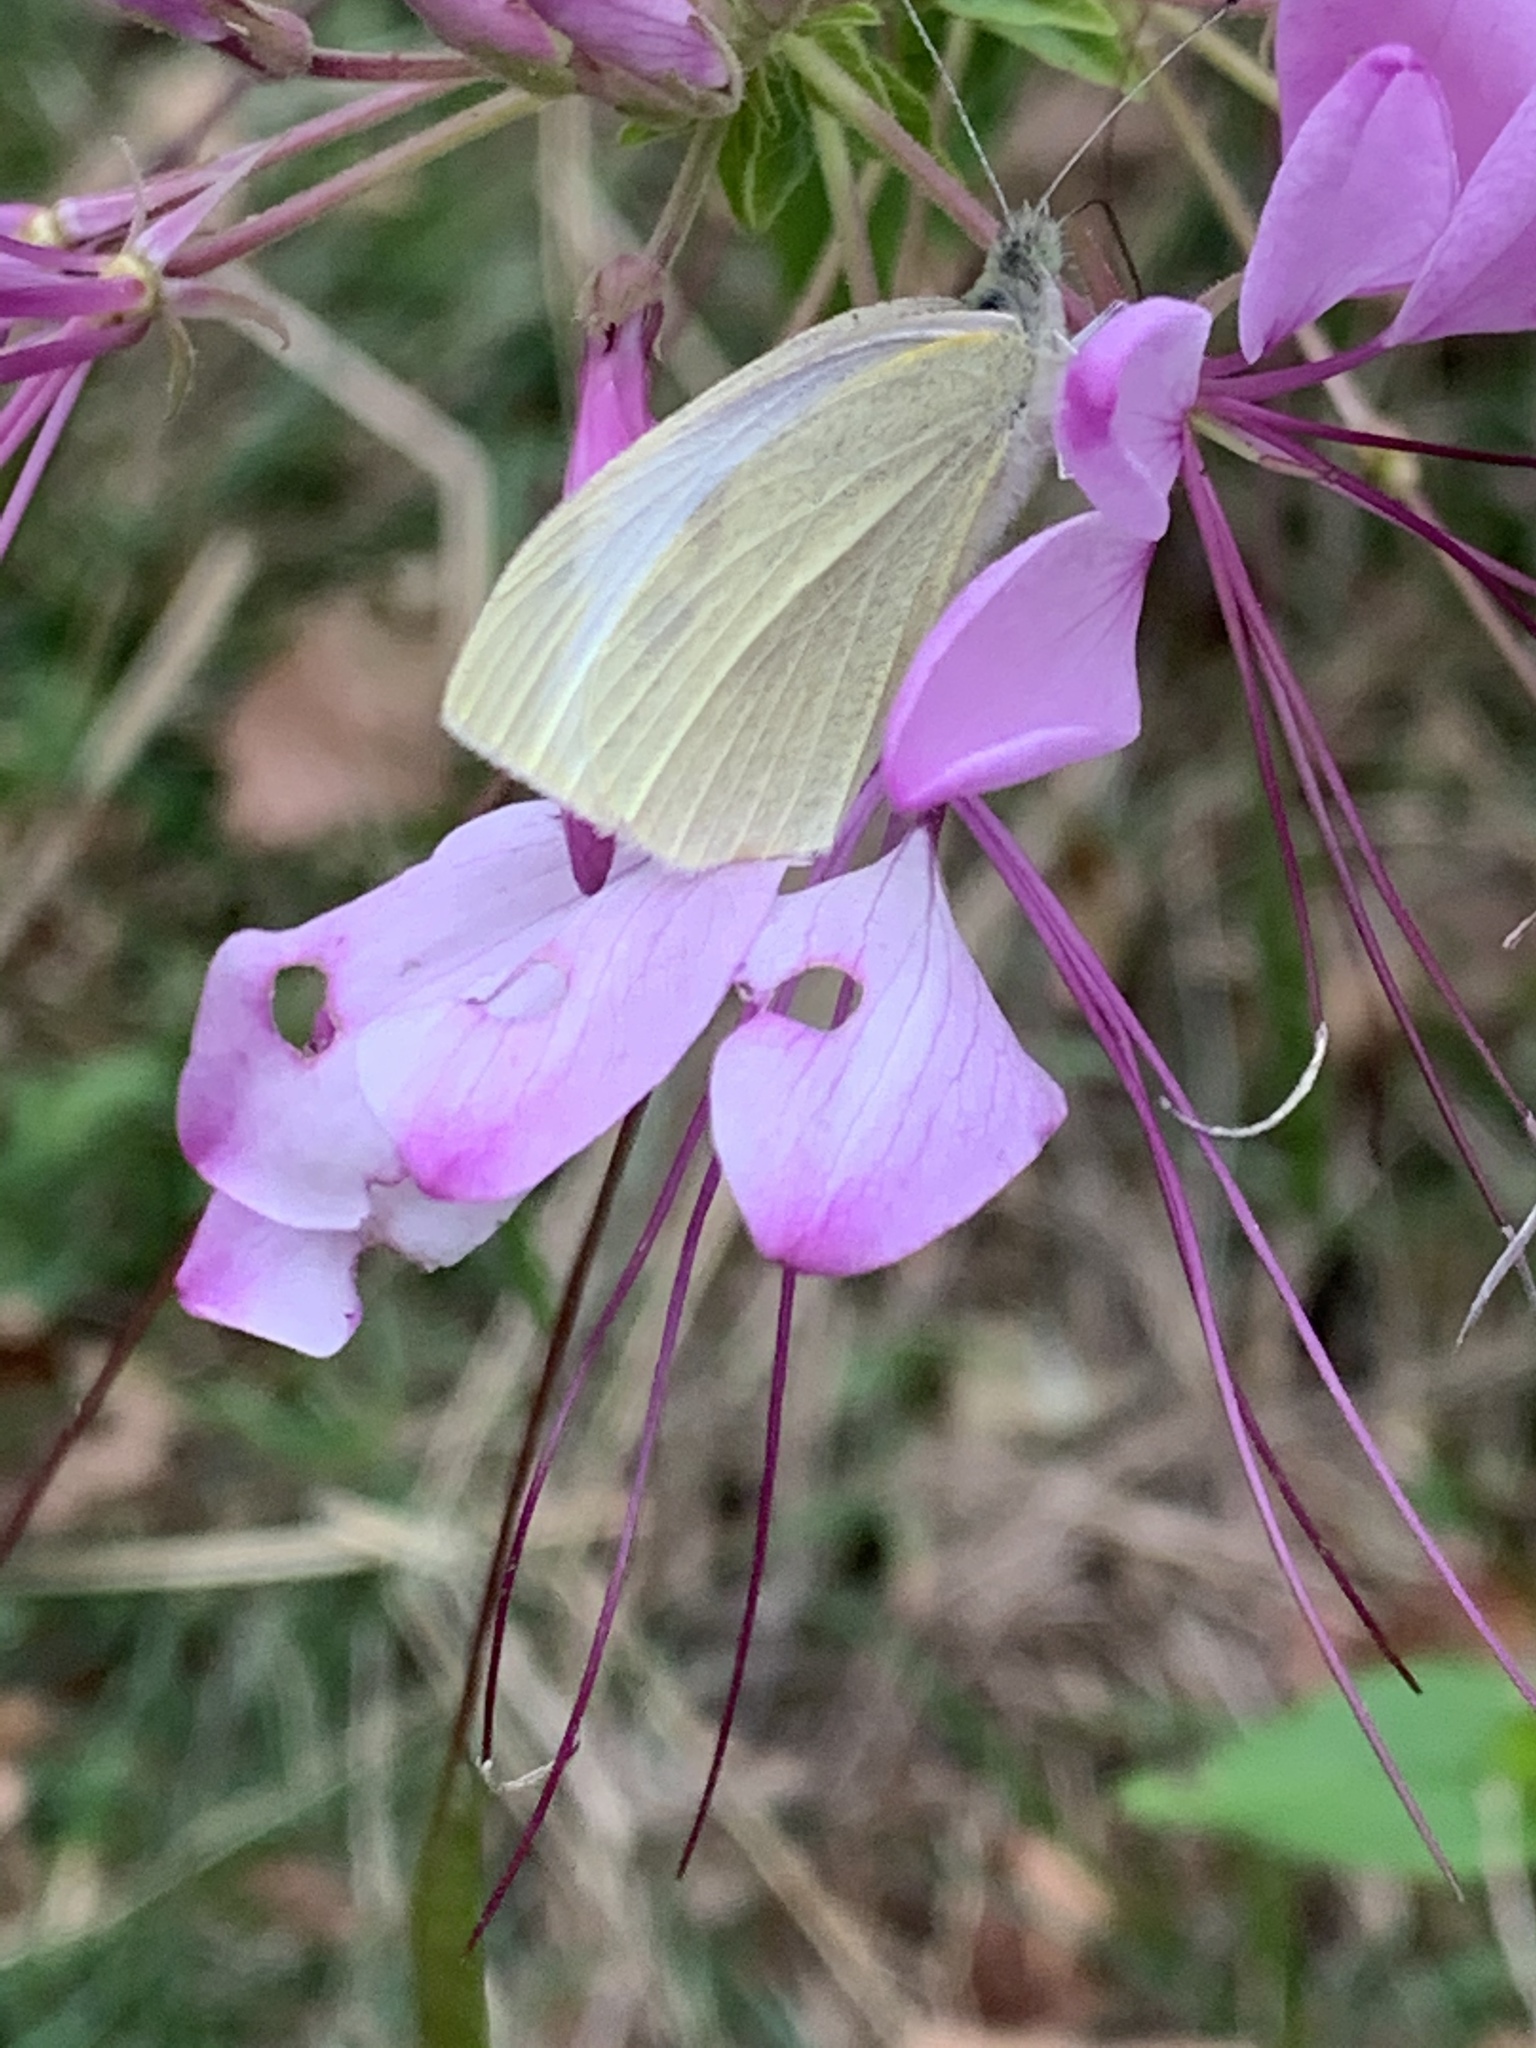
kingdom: Animalia
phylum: Arthropoda
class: Insecta
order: Lepidoptera
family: Pieridae
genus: Pieris
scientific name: Pieris rapae
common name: Small white
